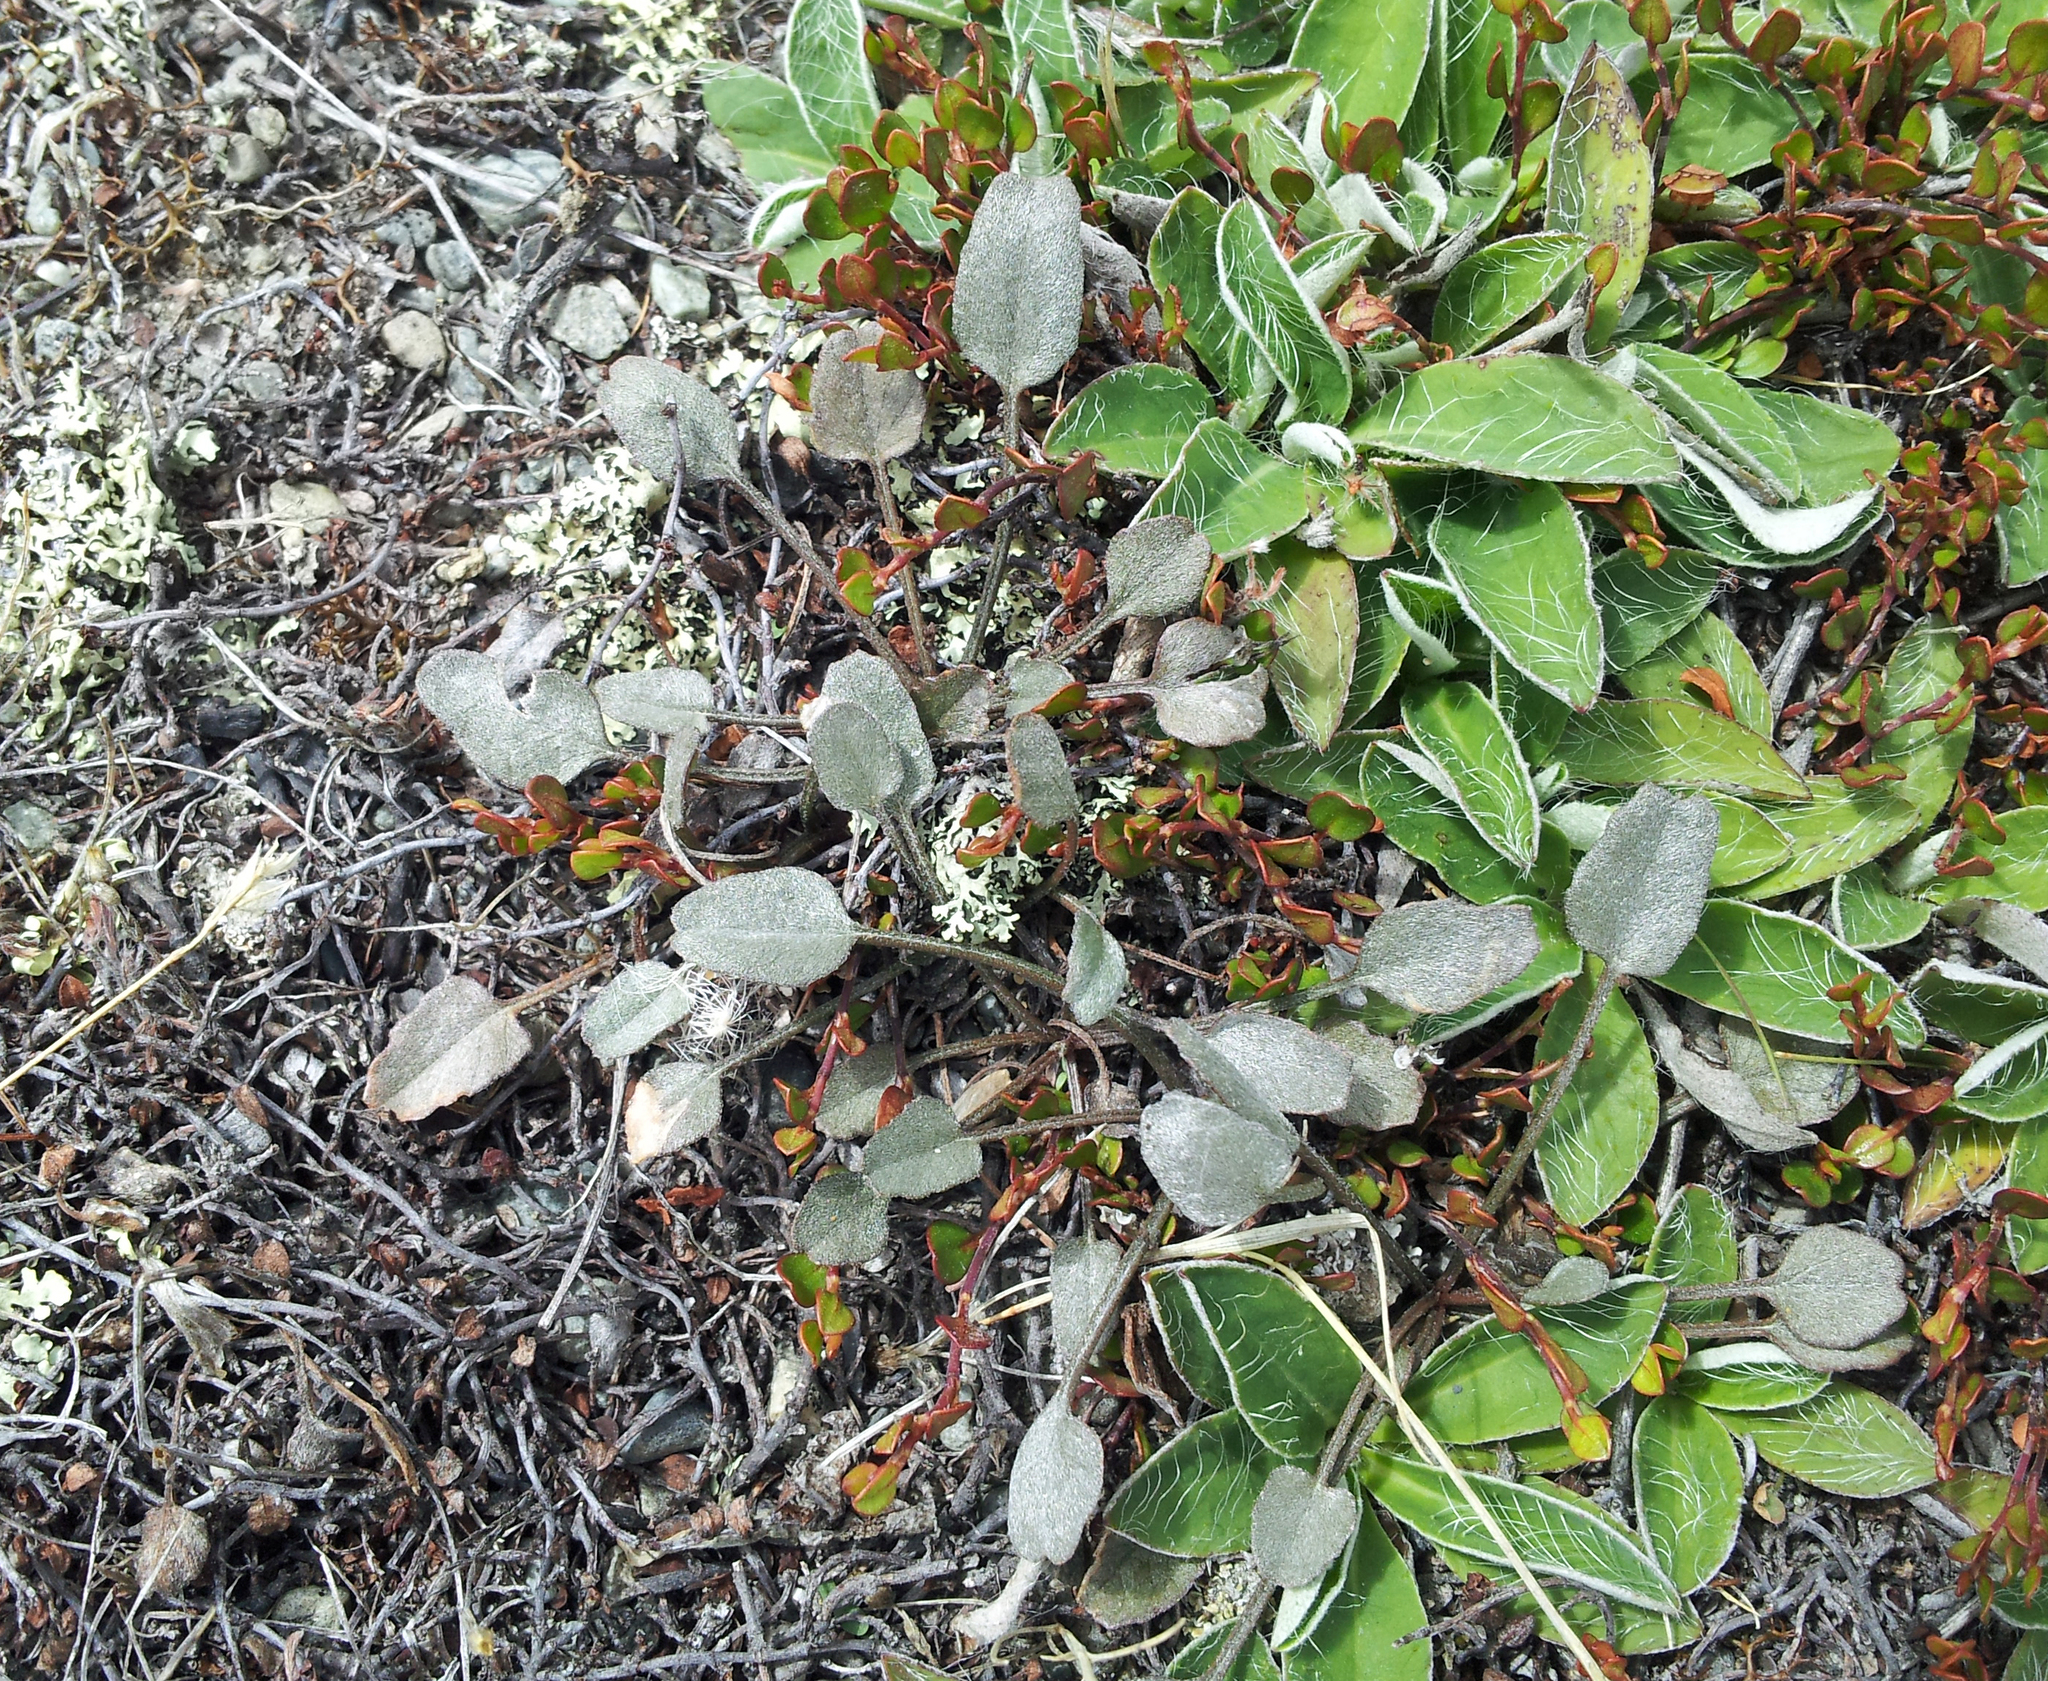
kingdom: Plantae
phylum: Tracheophyta
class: Magnoliopsida
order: Solanales
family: Convolvulaceae
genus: Convolvulus
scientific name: Convolvulus verecundus
